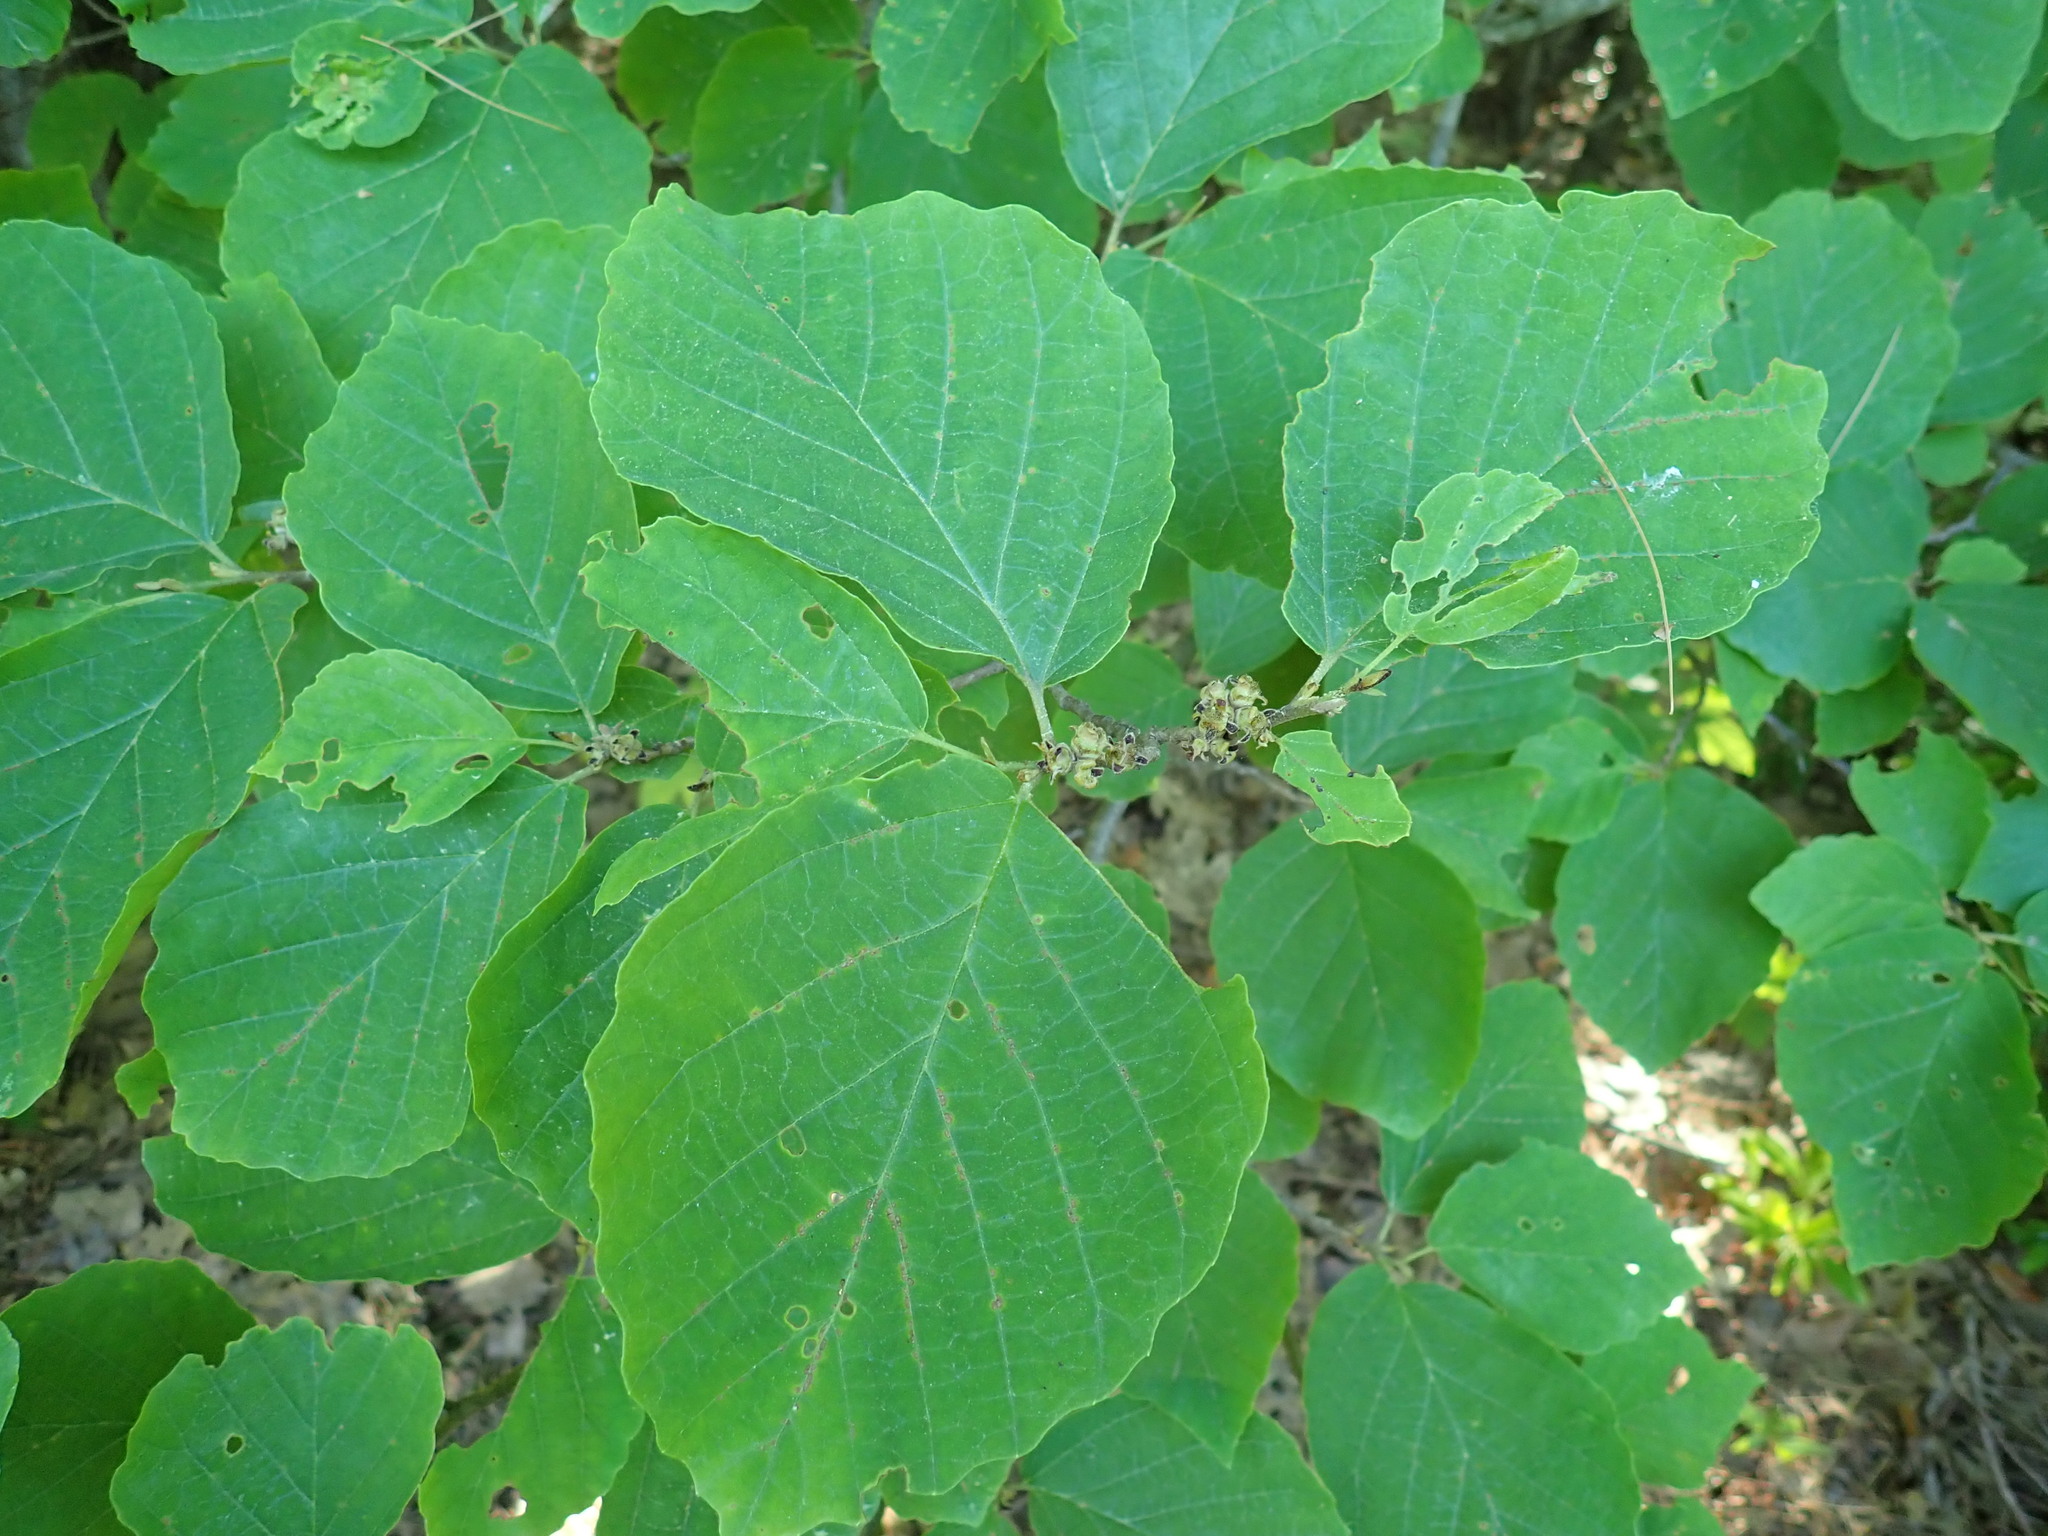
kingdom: Plantae
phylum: Tracheophyta
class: Magnoliopsida
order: Saxifragales
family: Hamamelidaceae
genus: Hamamelis
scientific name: Hamamelis virginiana
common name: Witch-hazel
